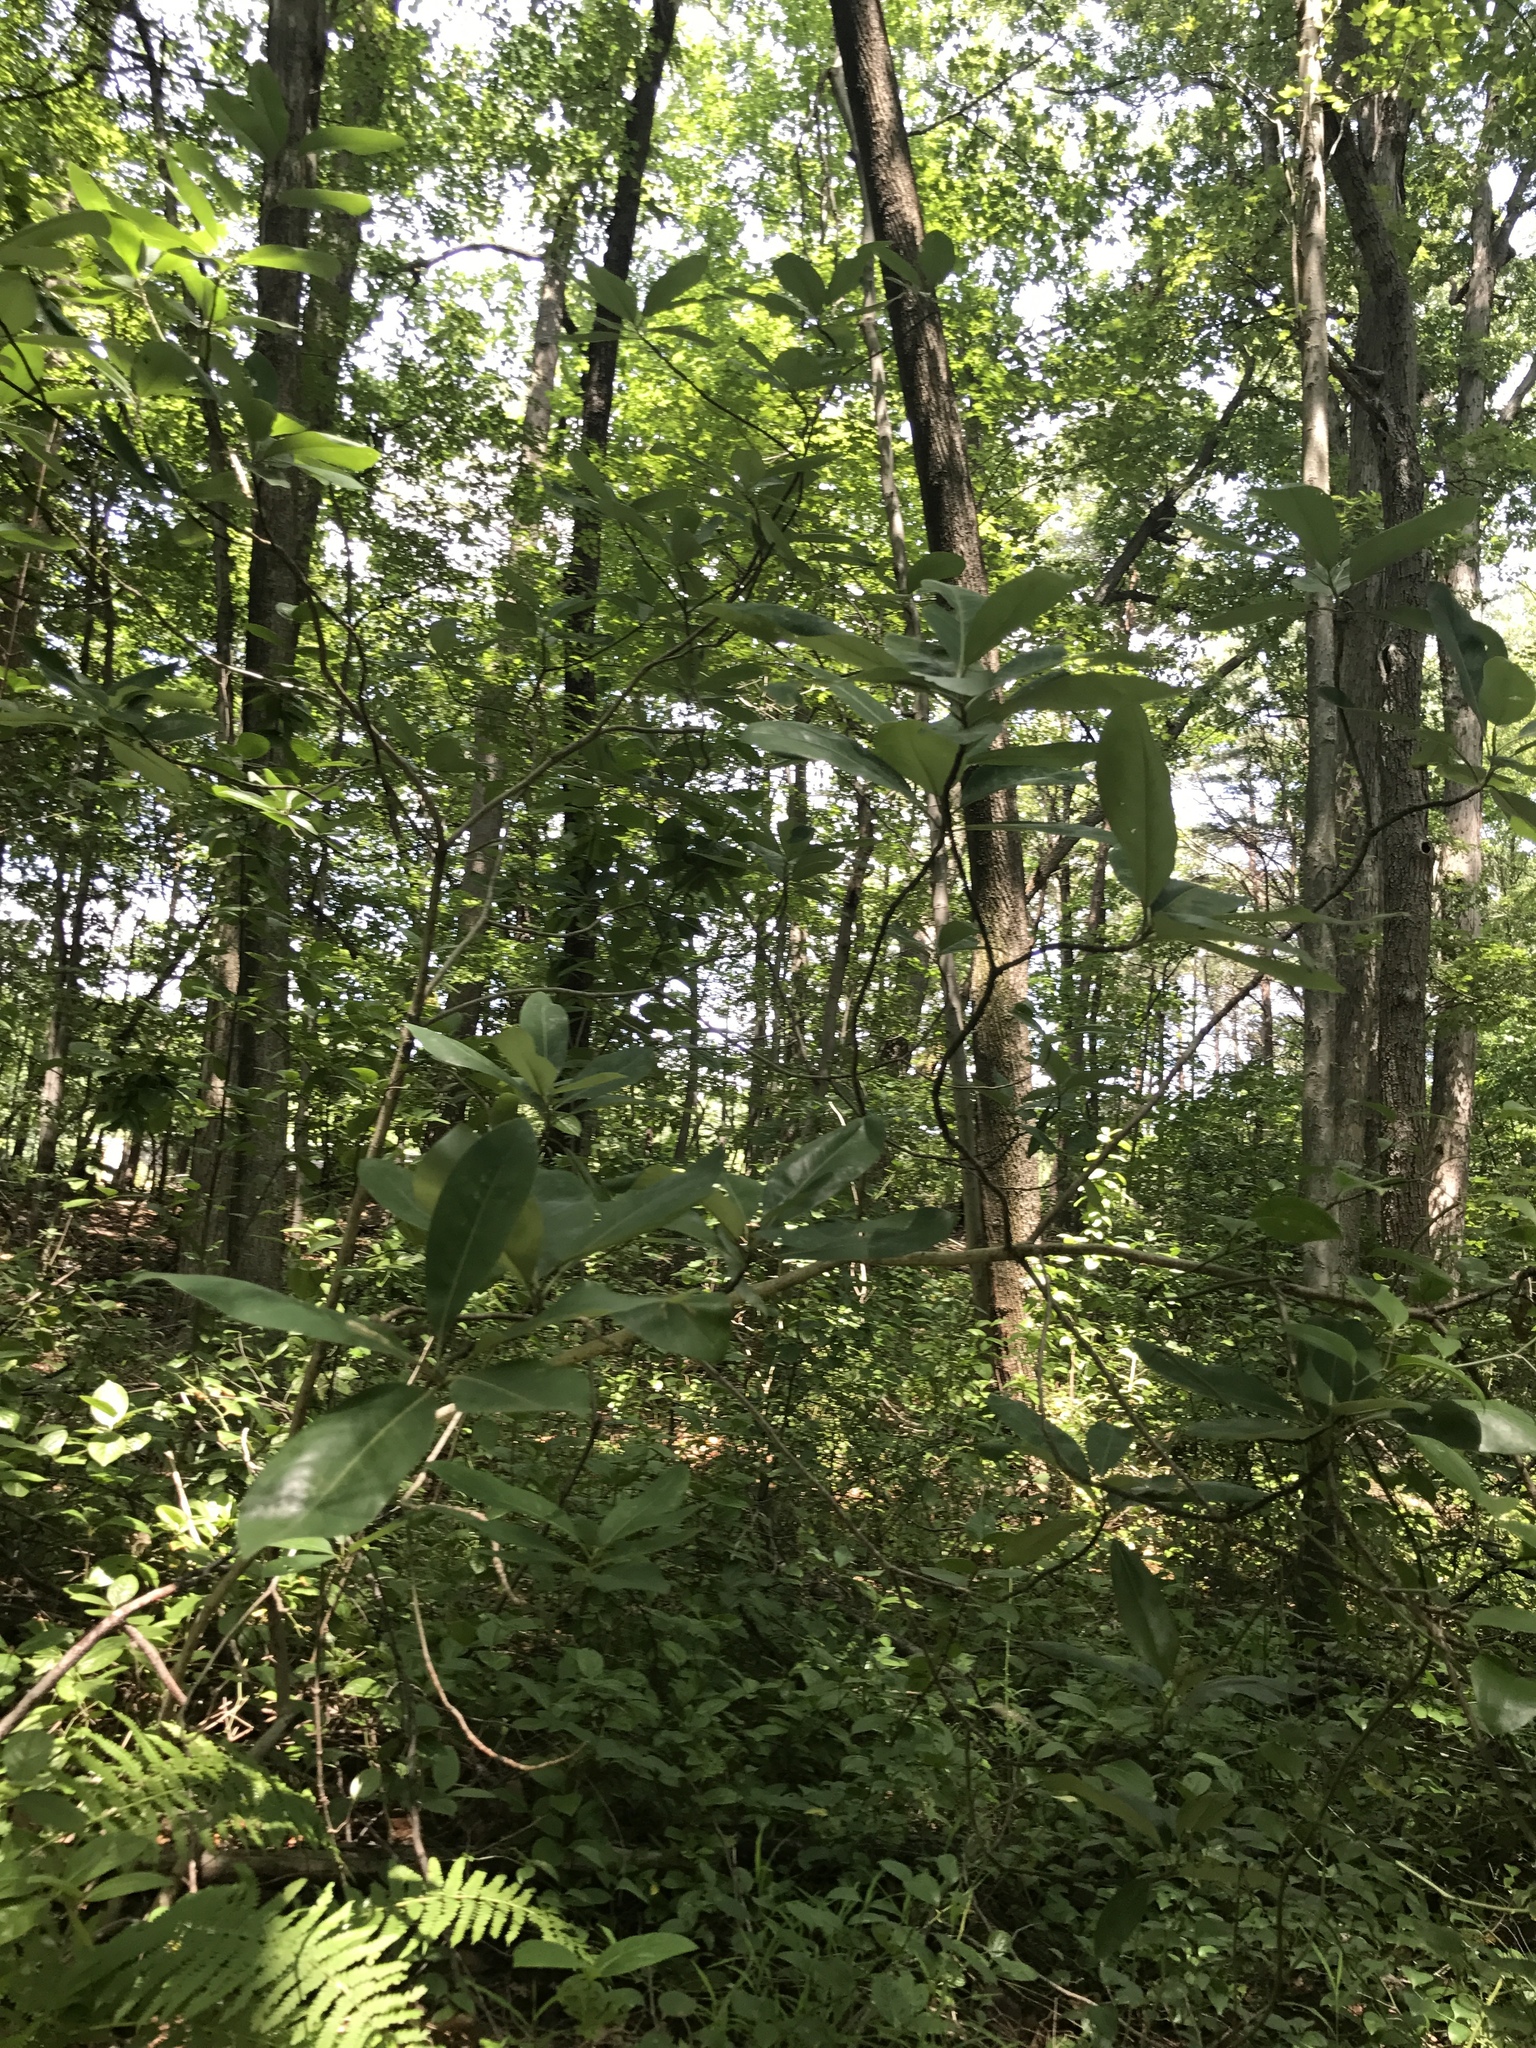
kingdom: Plantae
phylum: Tracheophyta
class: Magnoliopsida
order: Magnoliales
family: Magnoliaceae
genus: Magnolia
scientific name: Magnolia virginiana
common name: Swamp bay
